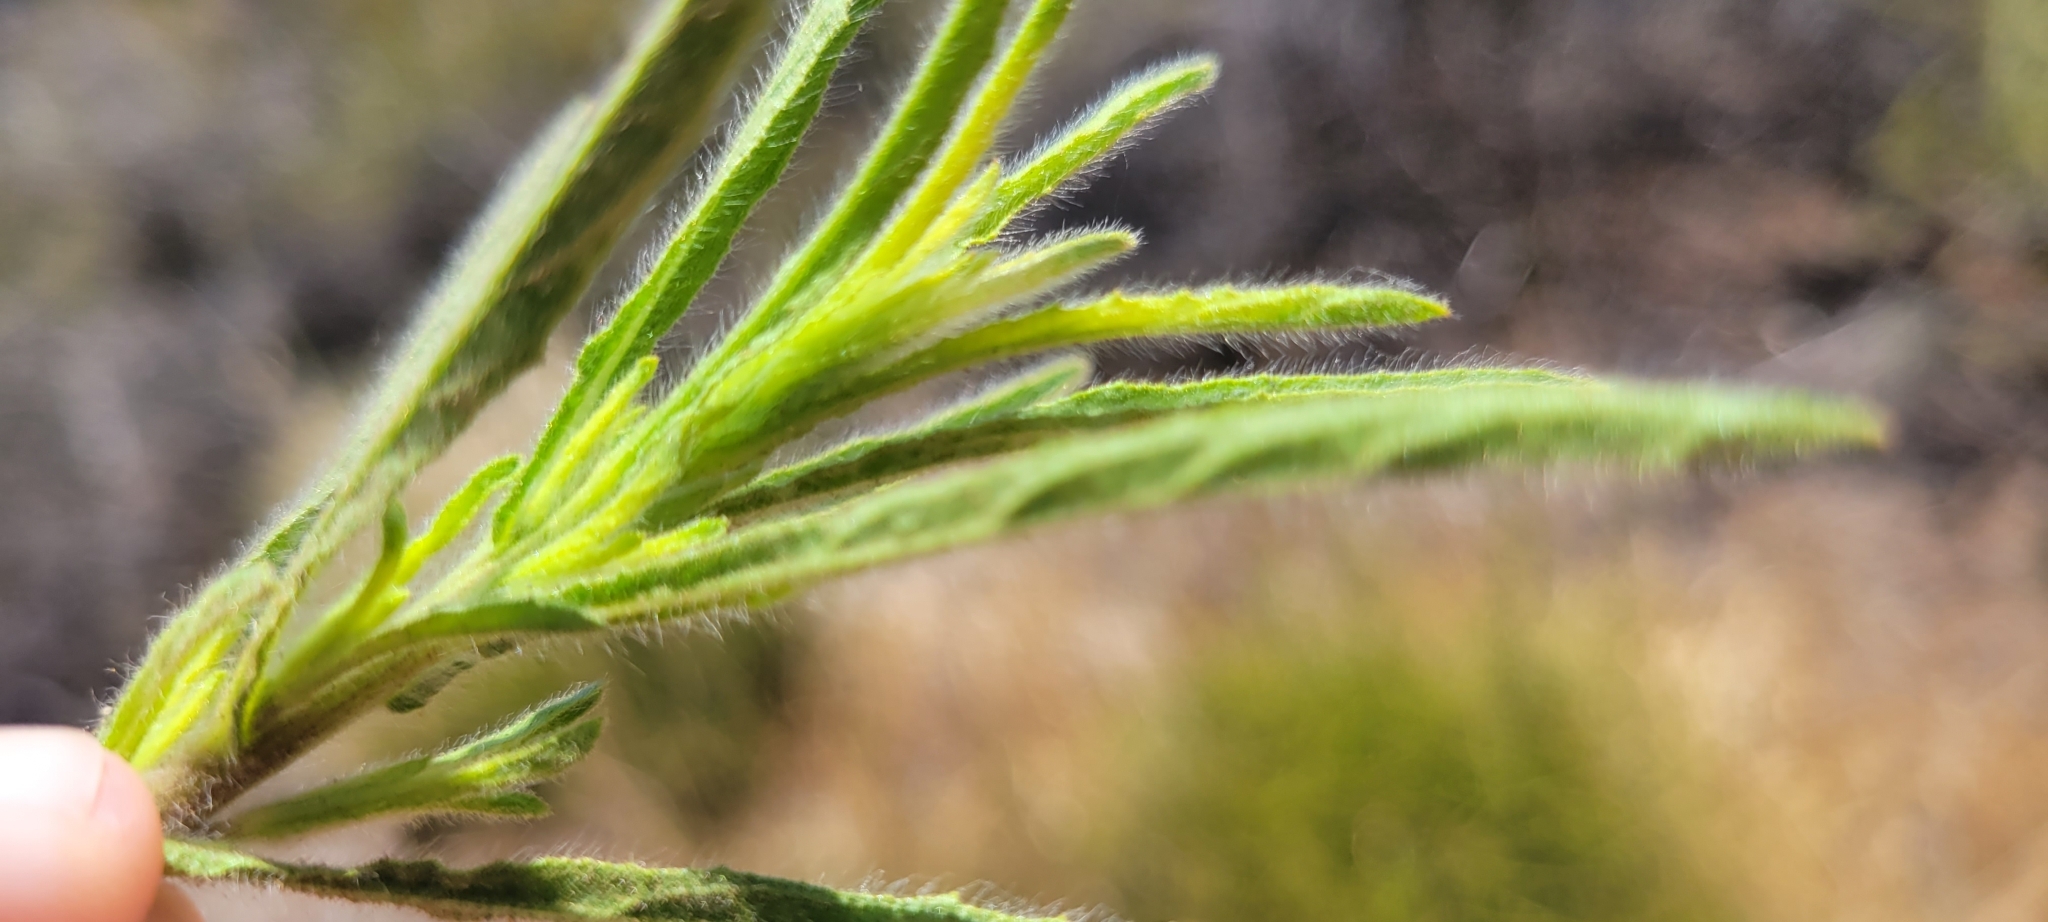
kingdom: Plantae
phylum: Tracheophyta
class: Magnoliopsida
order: Asterales
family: Asteraceae
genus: Dittrichia
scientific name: Dittrichia graveolens
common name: Stinking fleabane
